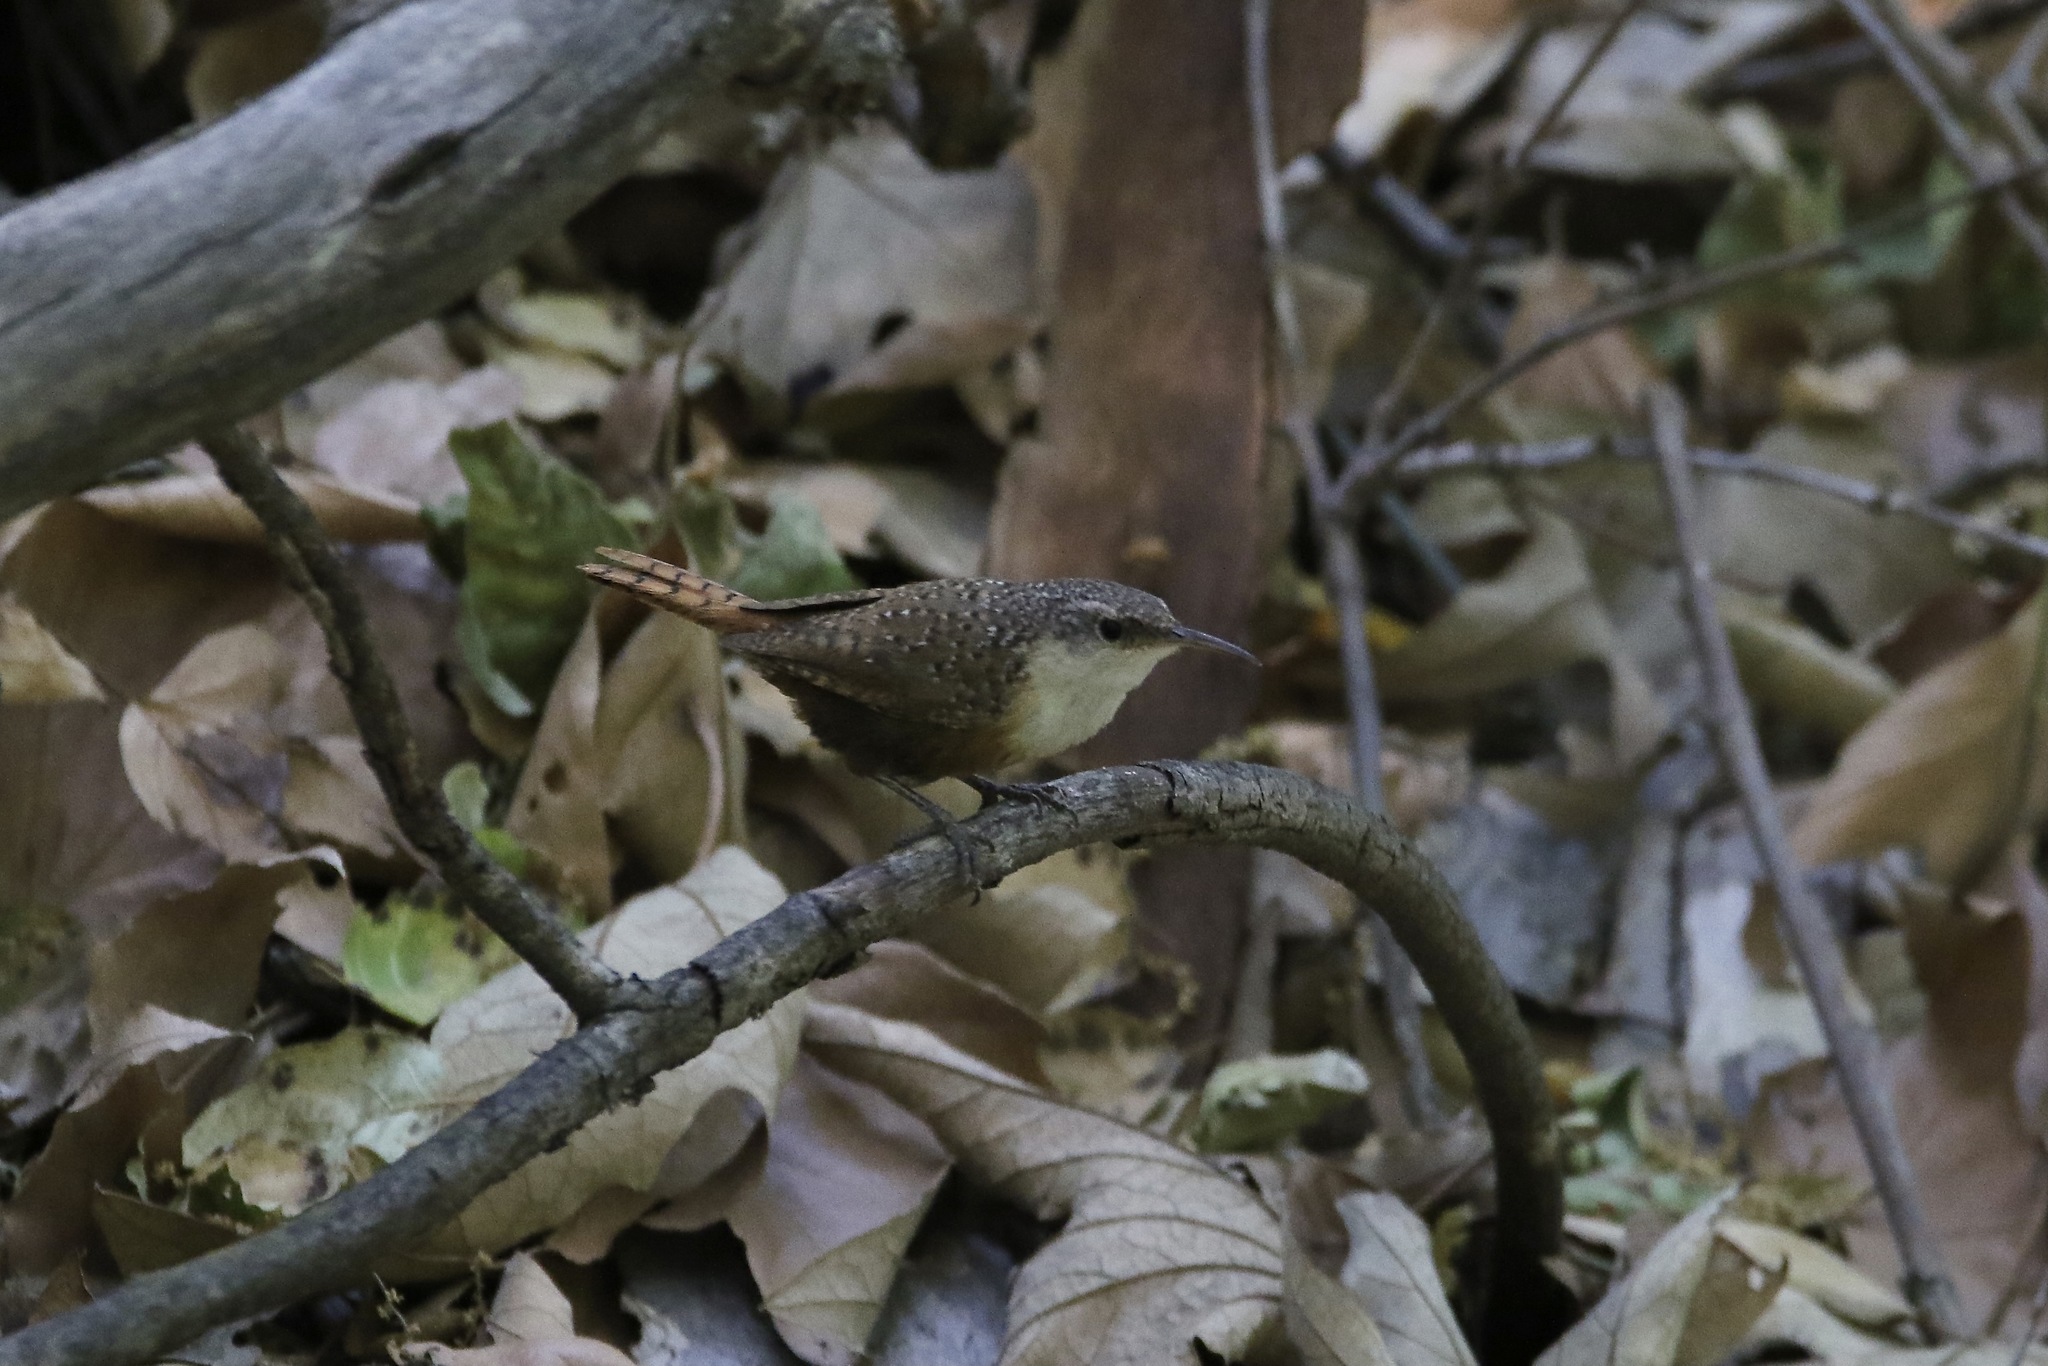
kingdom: Animalia
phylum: Chordata
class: Aves
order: Passeriformes
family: Troglodytidae
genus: Catherpes
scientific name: Catherpes mexicanus
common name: Canyon wren
